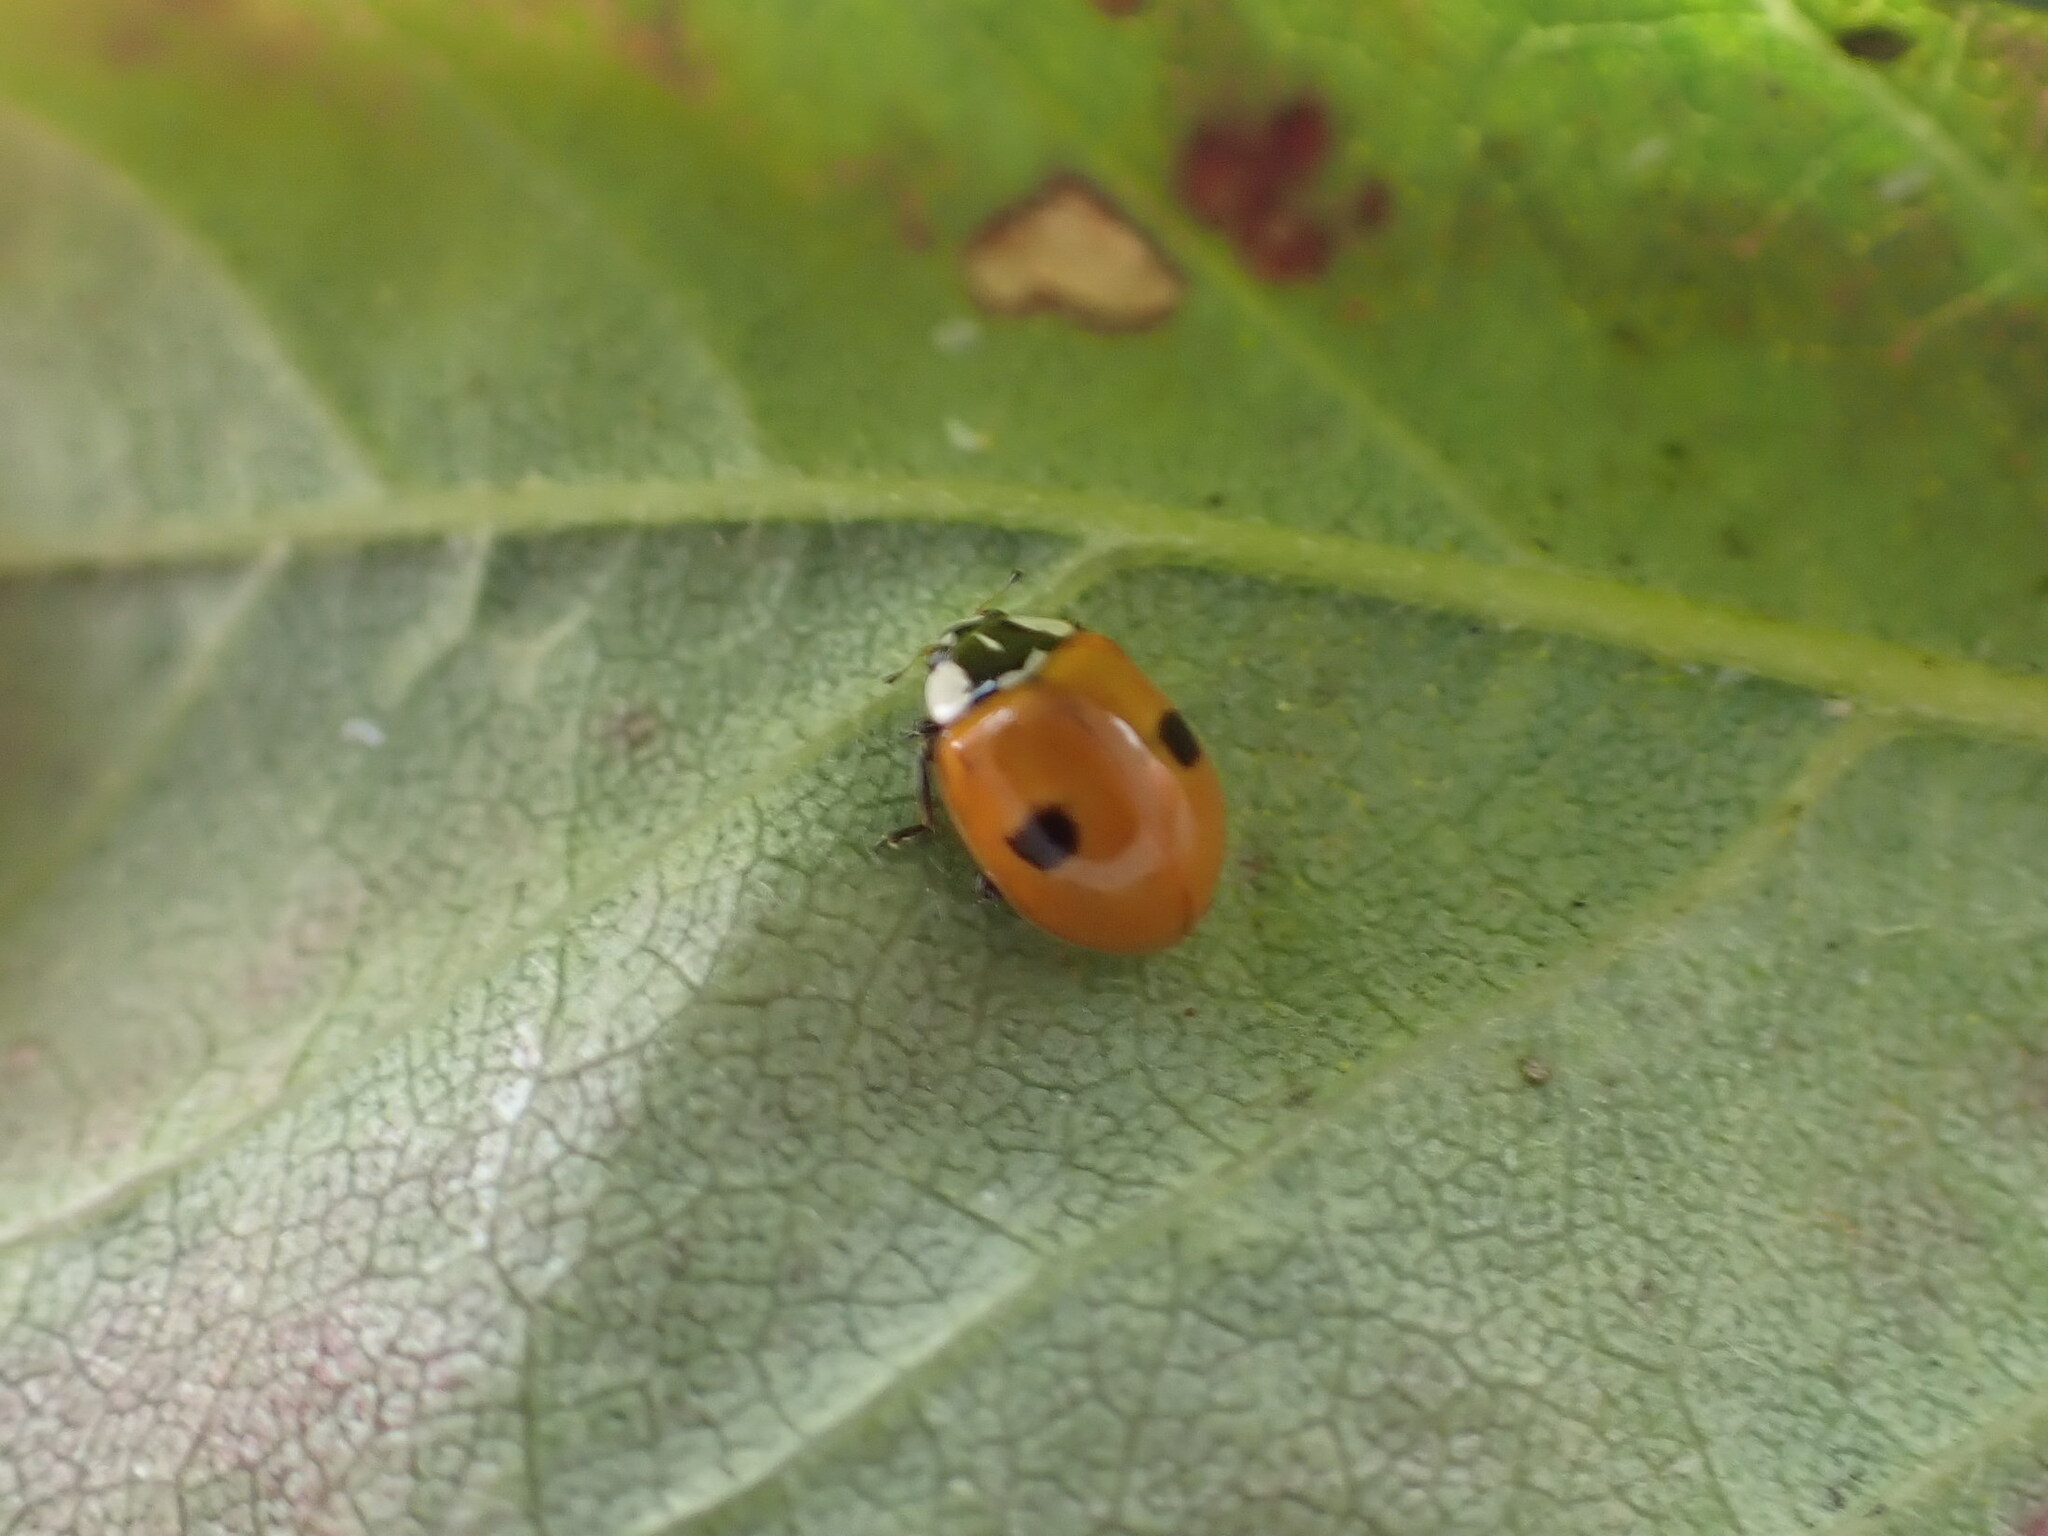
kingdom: Animalia
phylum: Arthropoda
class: Insecta
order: Coleoptera
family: Coccinellidae
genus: Adalia
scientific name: Adalia bipunctata
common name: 2-spot ladybird
